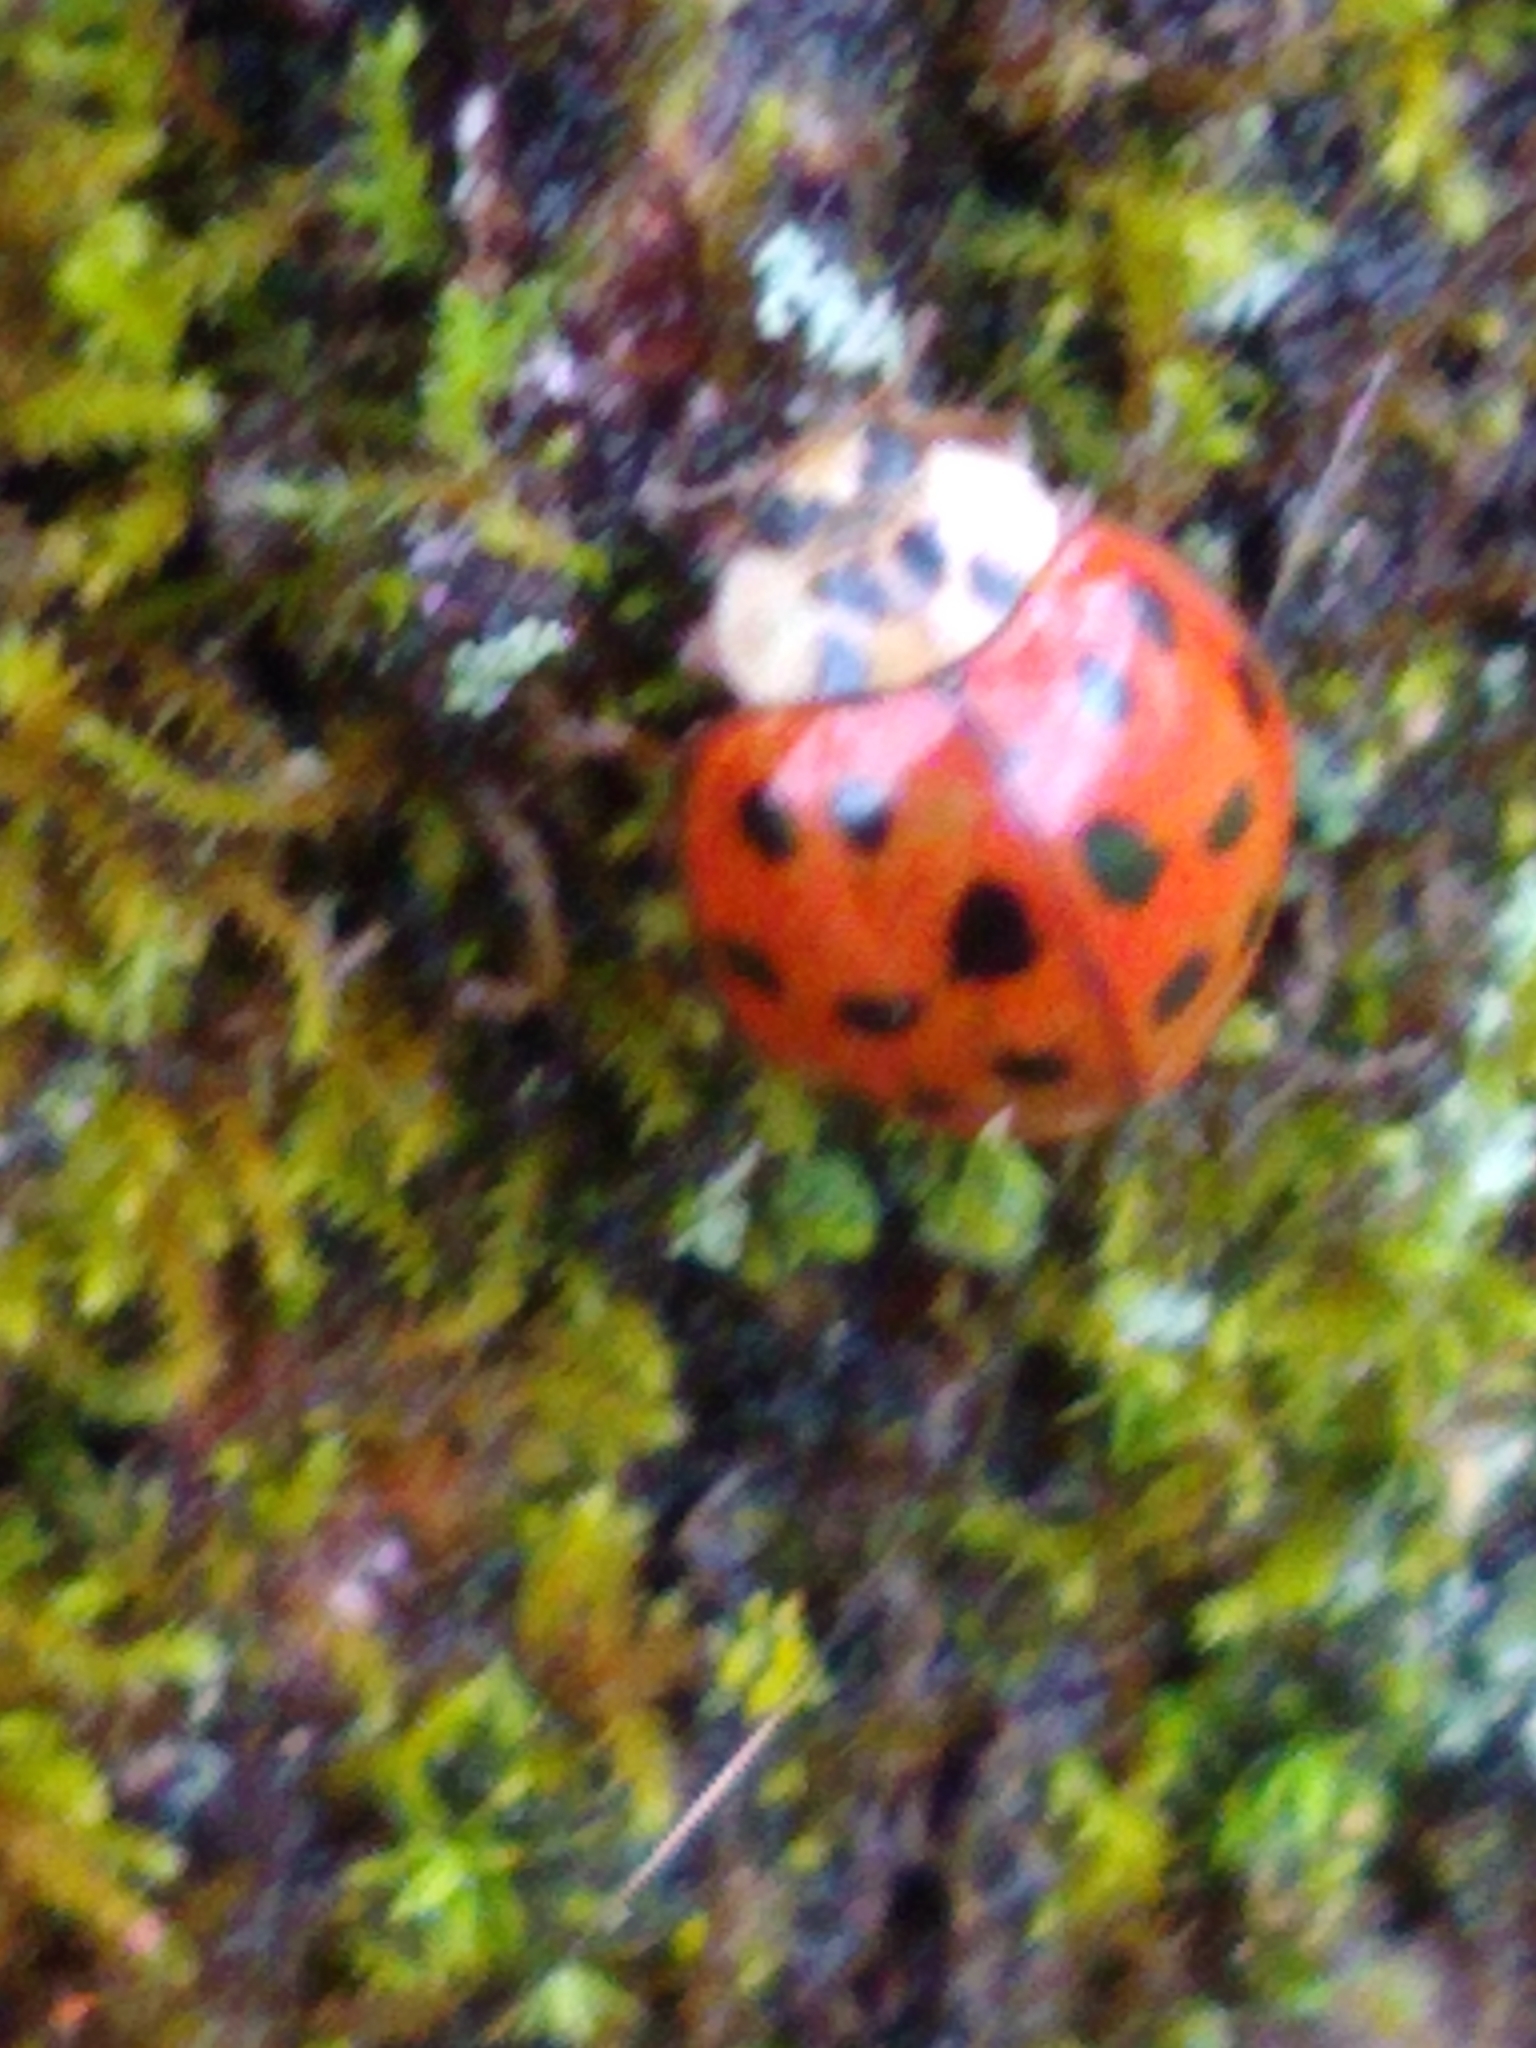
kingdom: Animalia
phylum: Arthropoda
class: Insecta
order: Coleoptera
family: Coccinellidae
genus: Harmonia
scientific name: Harmonia axyridis
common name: Harlequin ladybird
